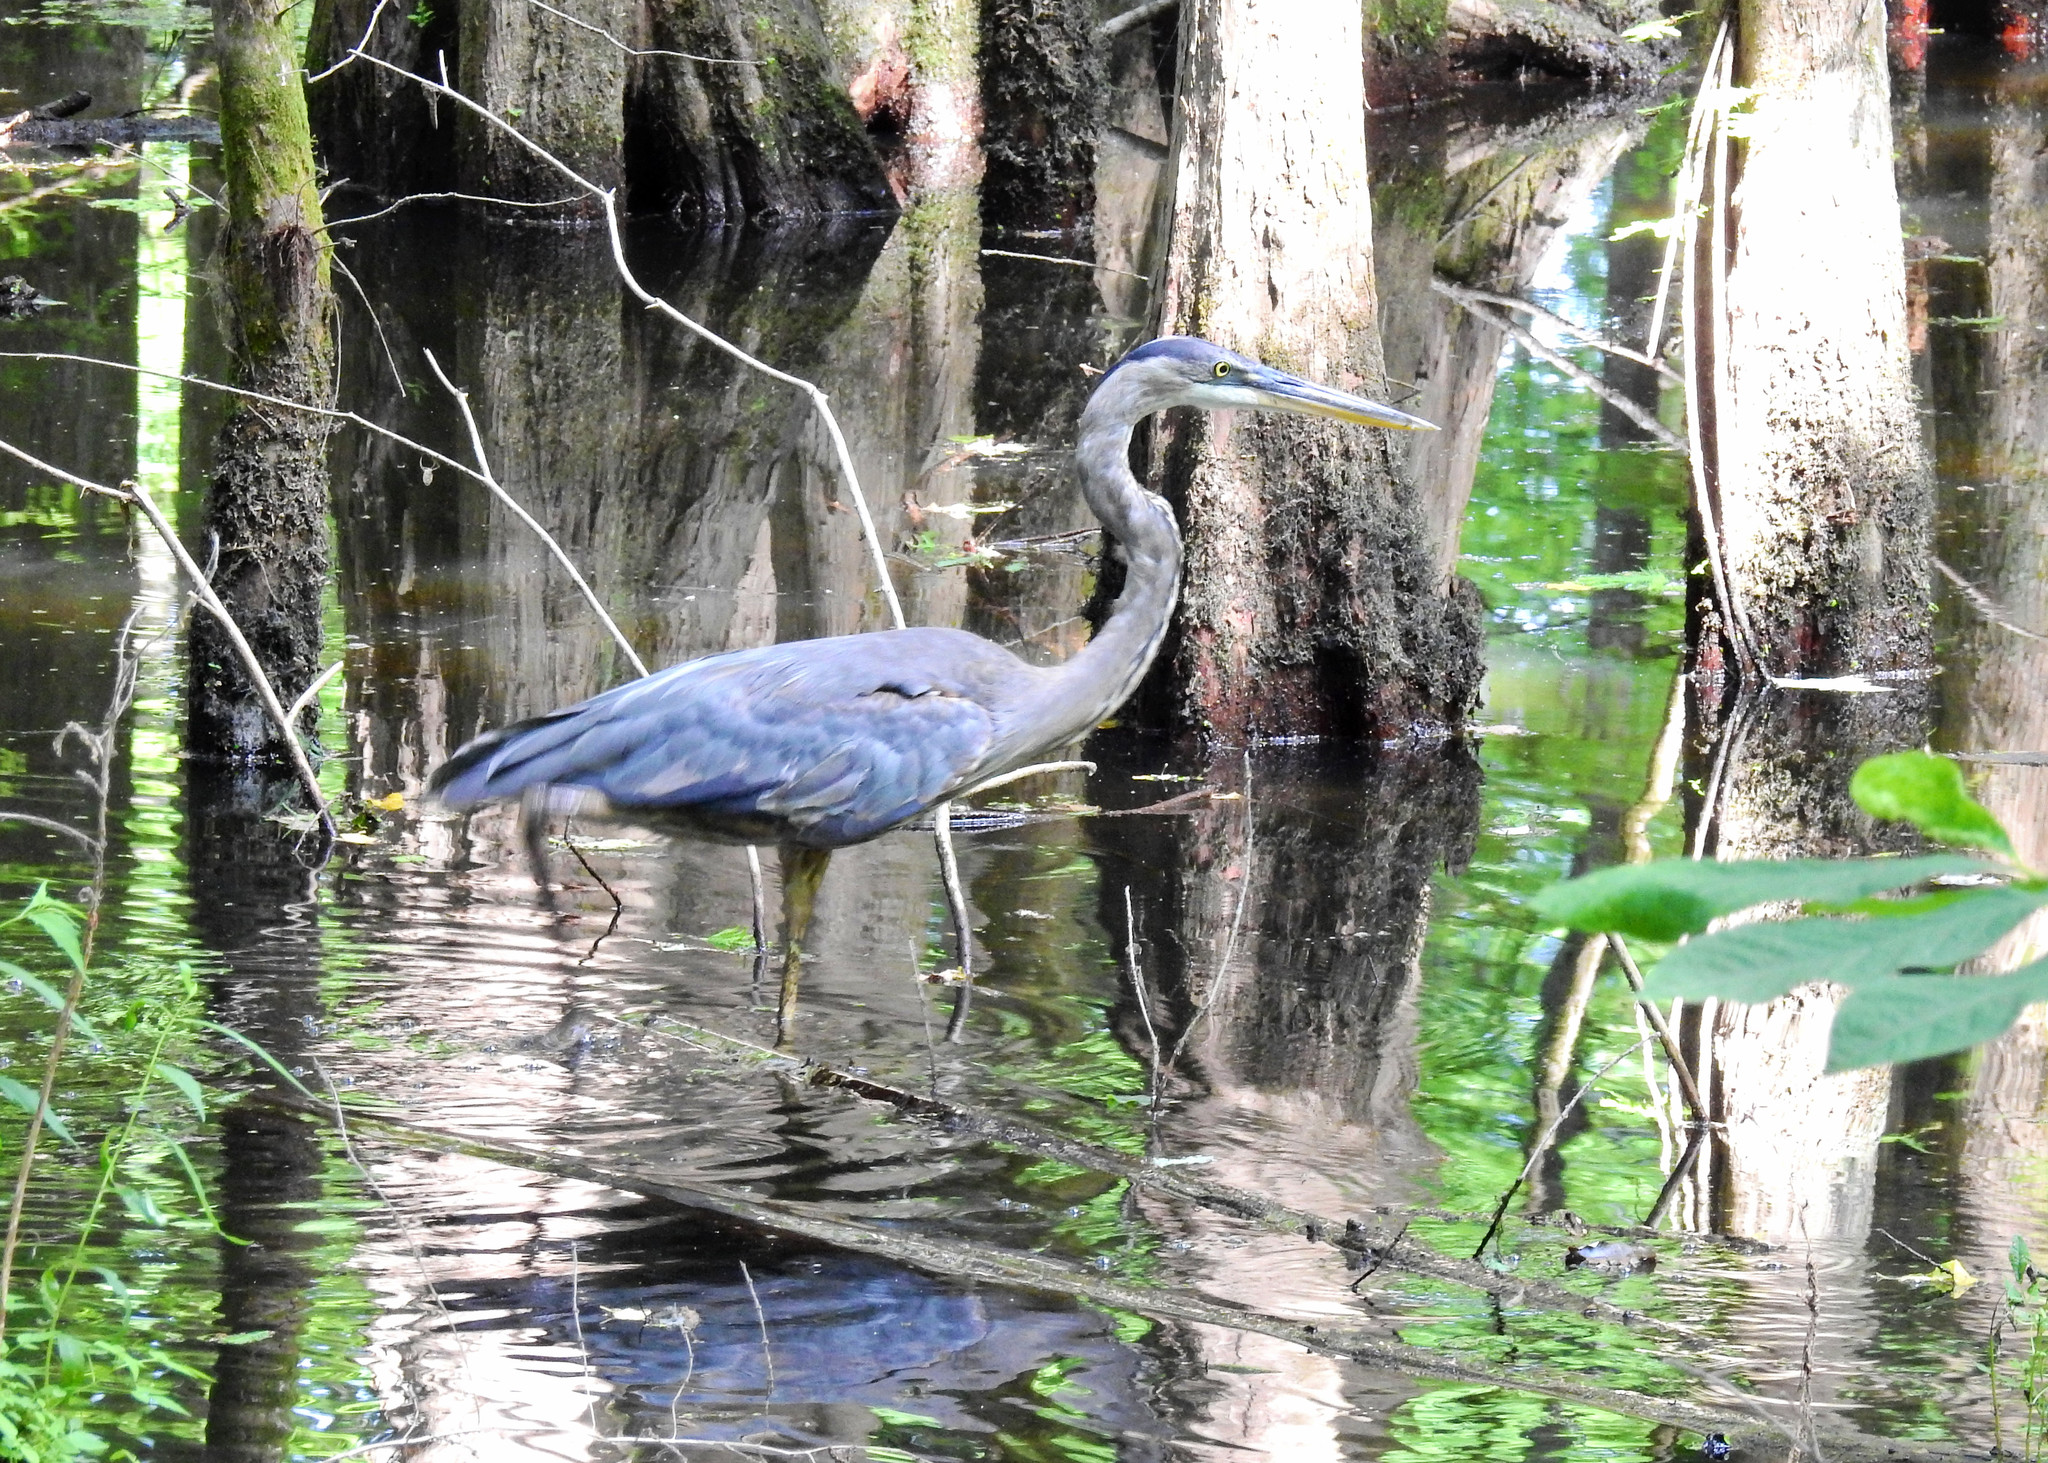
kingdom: Animalia
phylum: Chordata
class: Aves
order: Pelecaniformes
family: Ardeidae
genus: Ardea
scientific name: Ardea herodias
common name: Great blue heron
